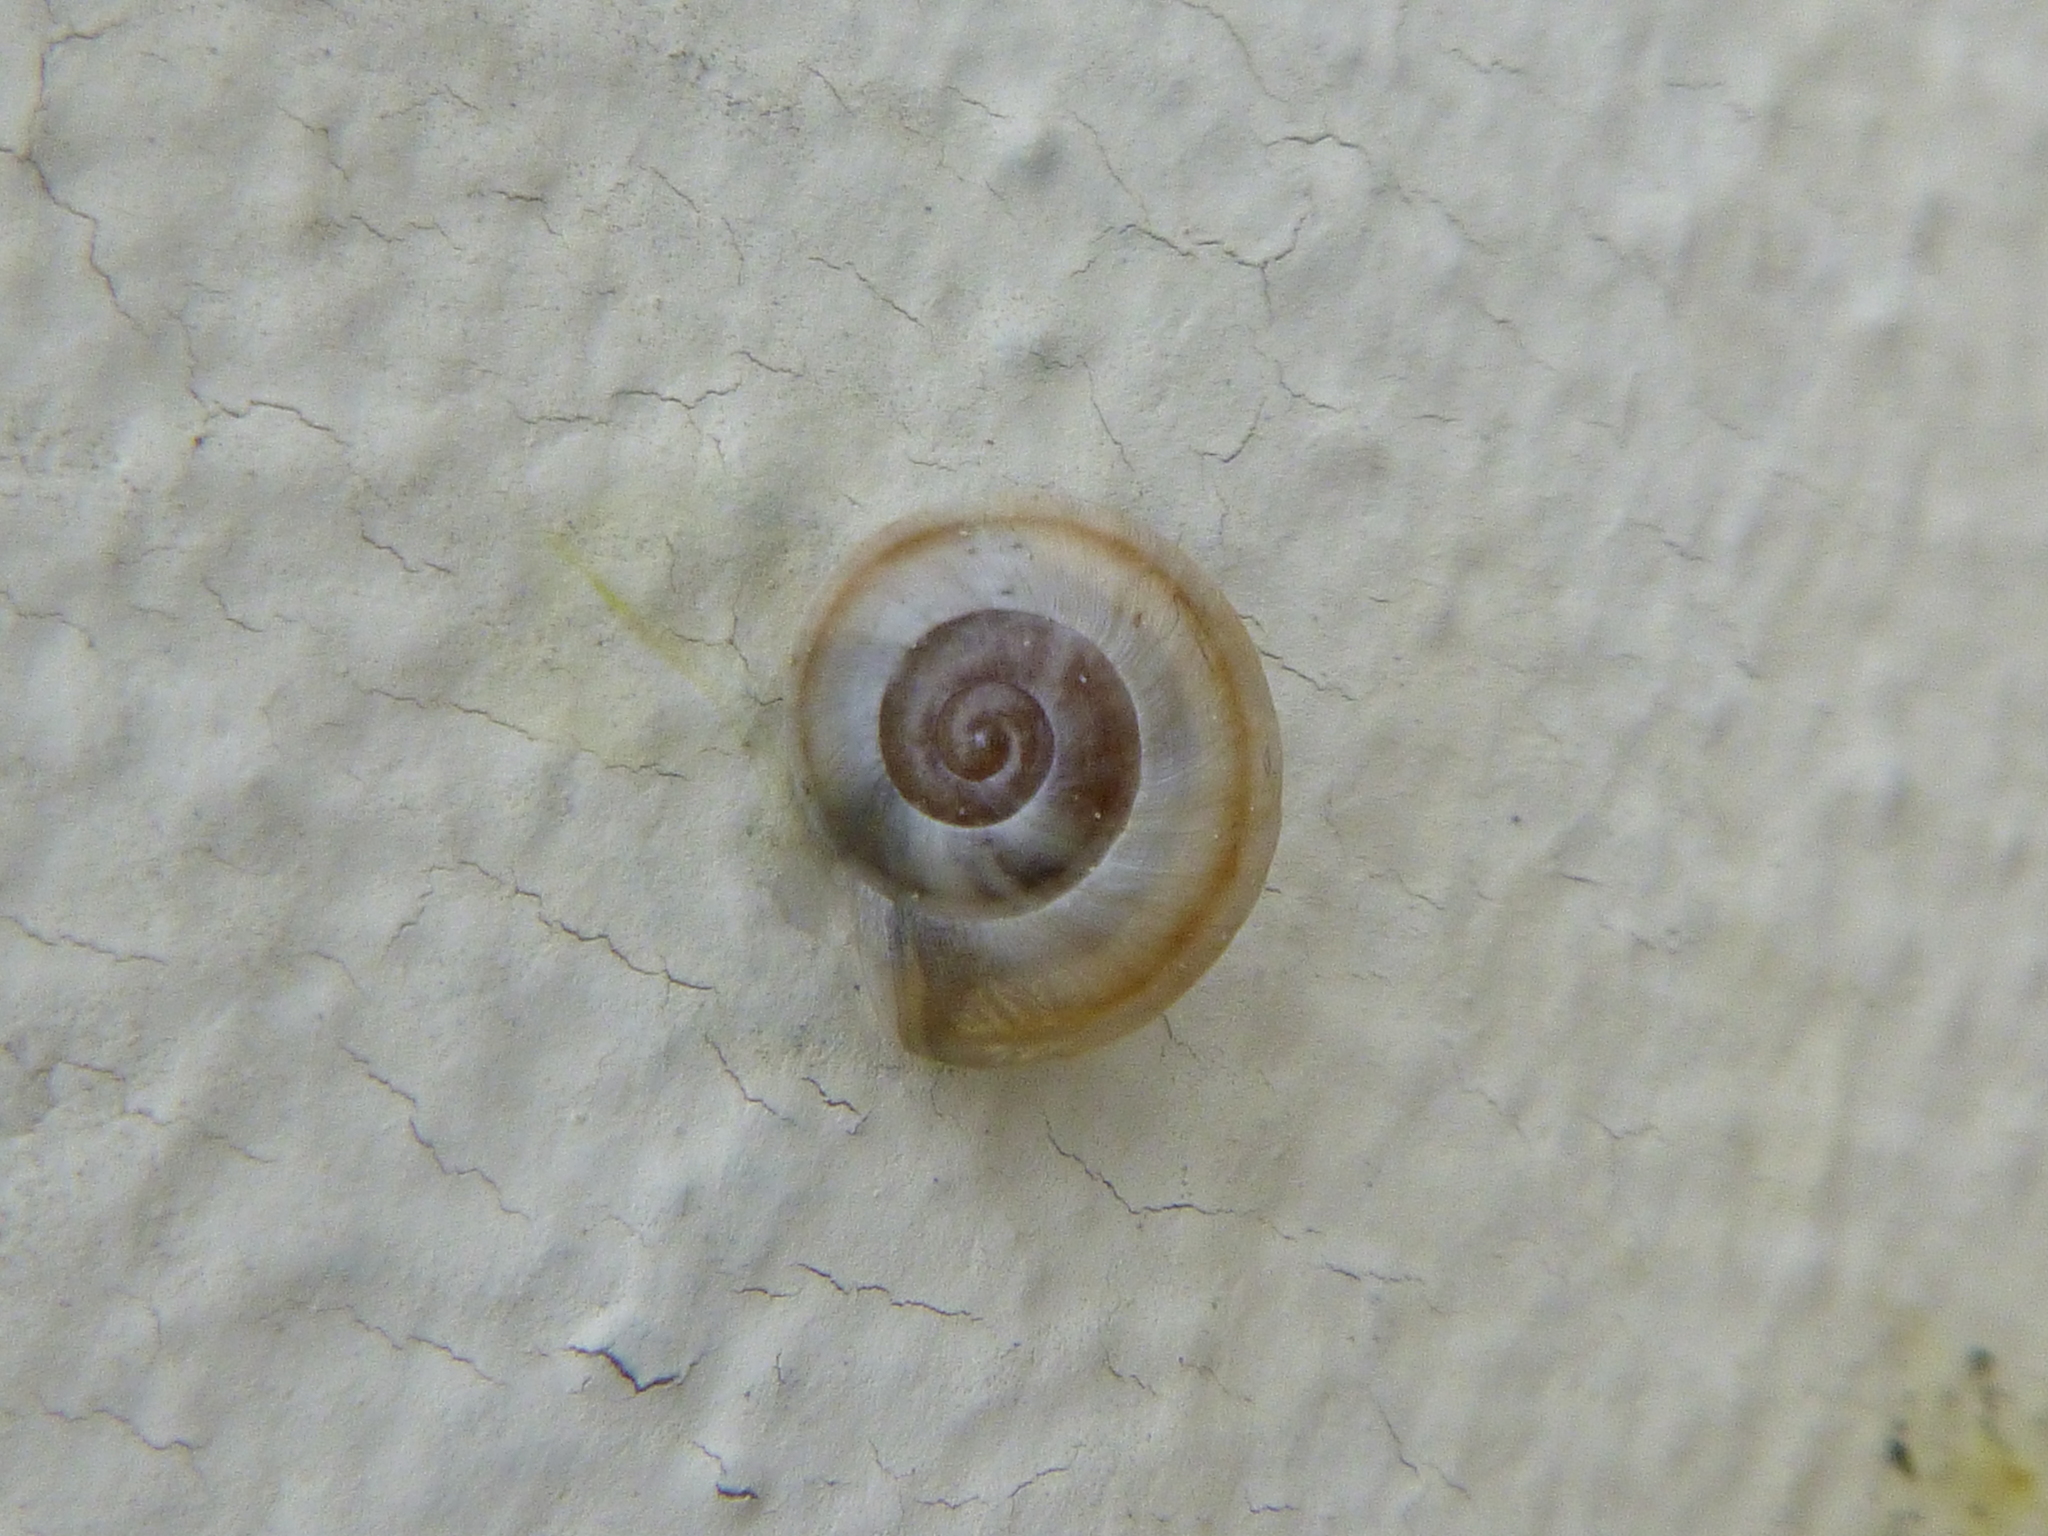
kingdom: Animalia
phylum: Mollusca
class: Gastropoda
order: Stylommatophora
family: Helicidae
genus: Theba
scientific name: Theba pisana
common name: White snail
